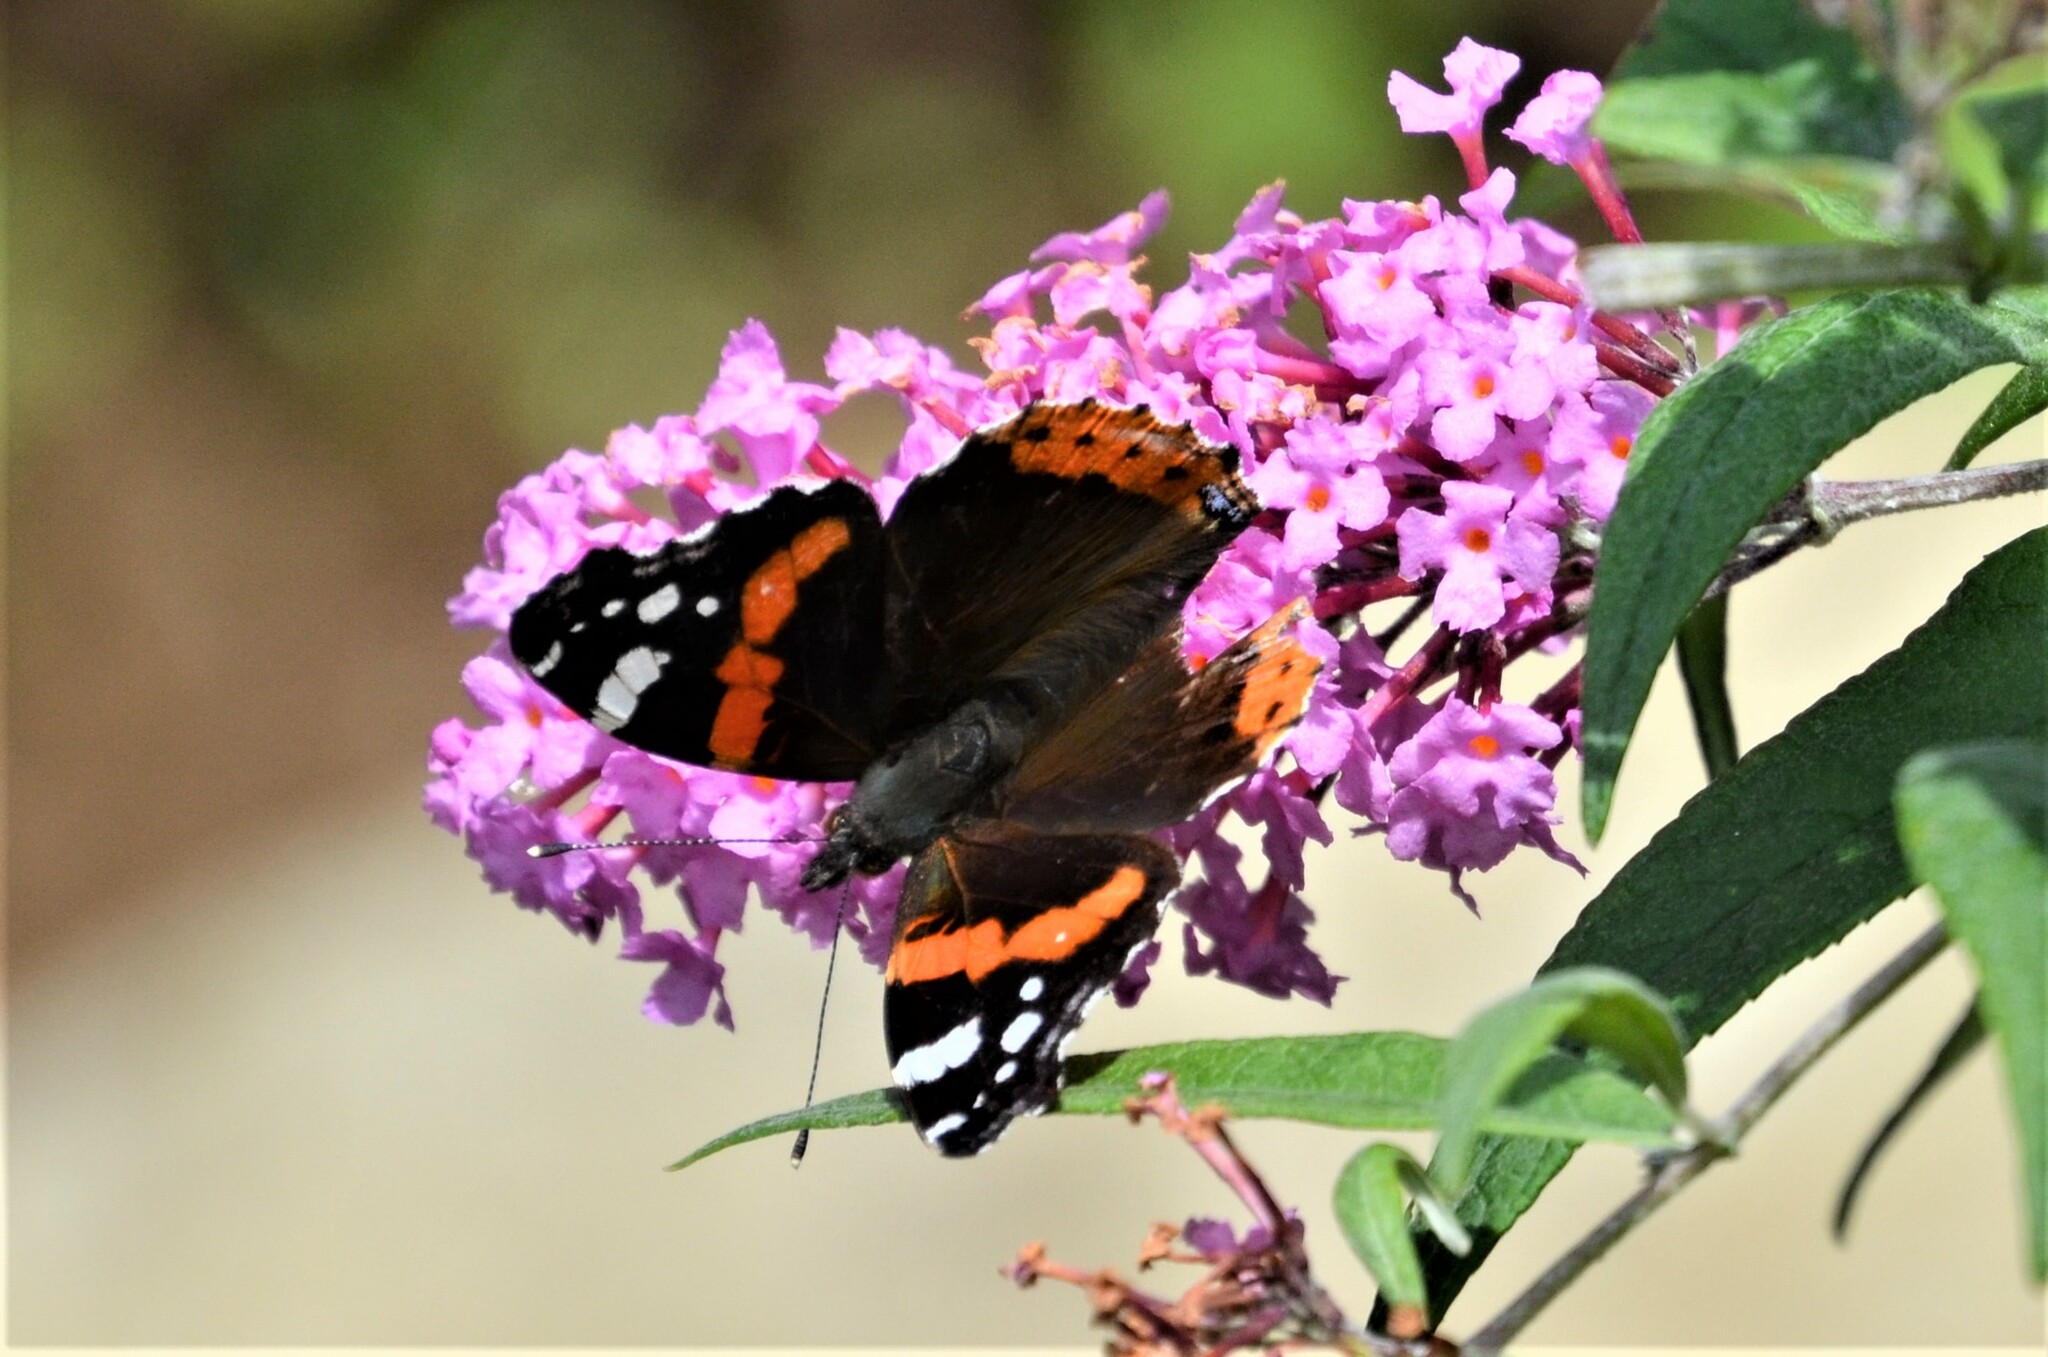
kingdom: Animalia
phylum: Arthropoda
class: Insecta
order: Lepidoptera
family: Nymphalidae
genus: Vanessa
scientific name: Vanessa atalanta
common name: Red admiral
